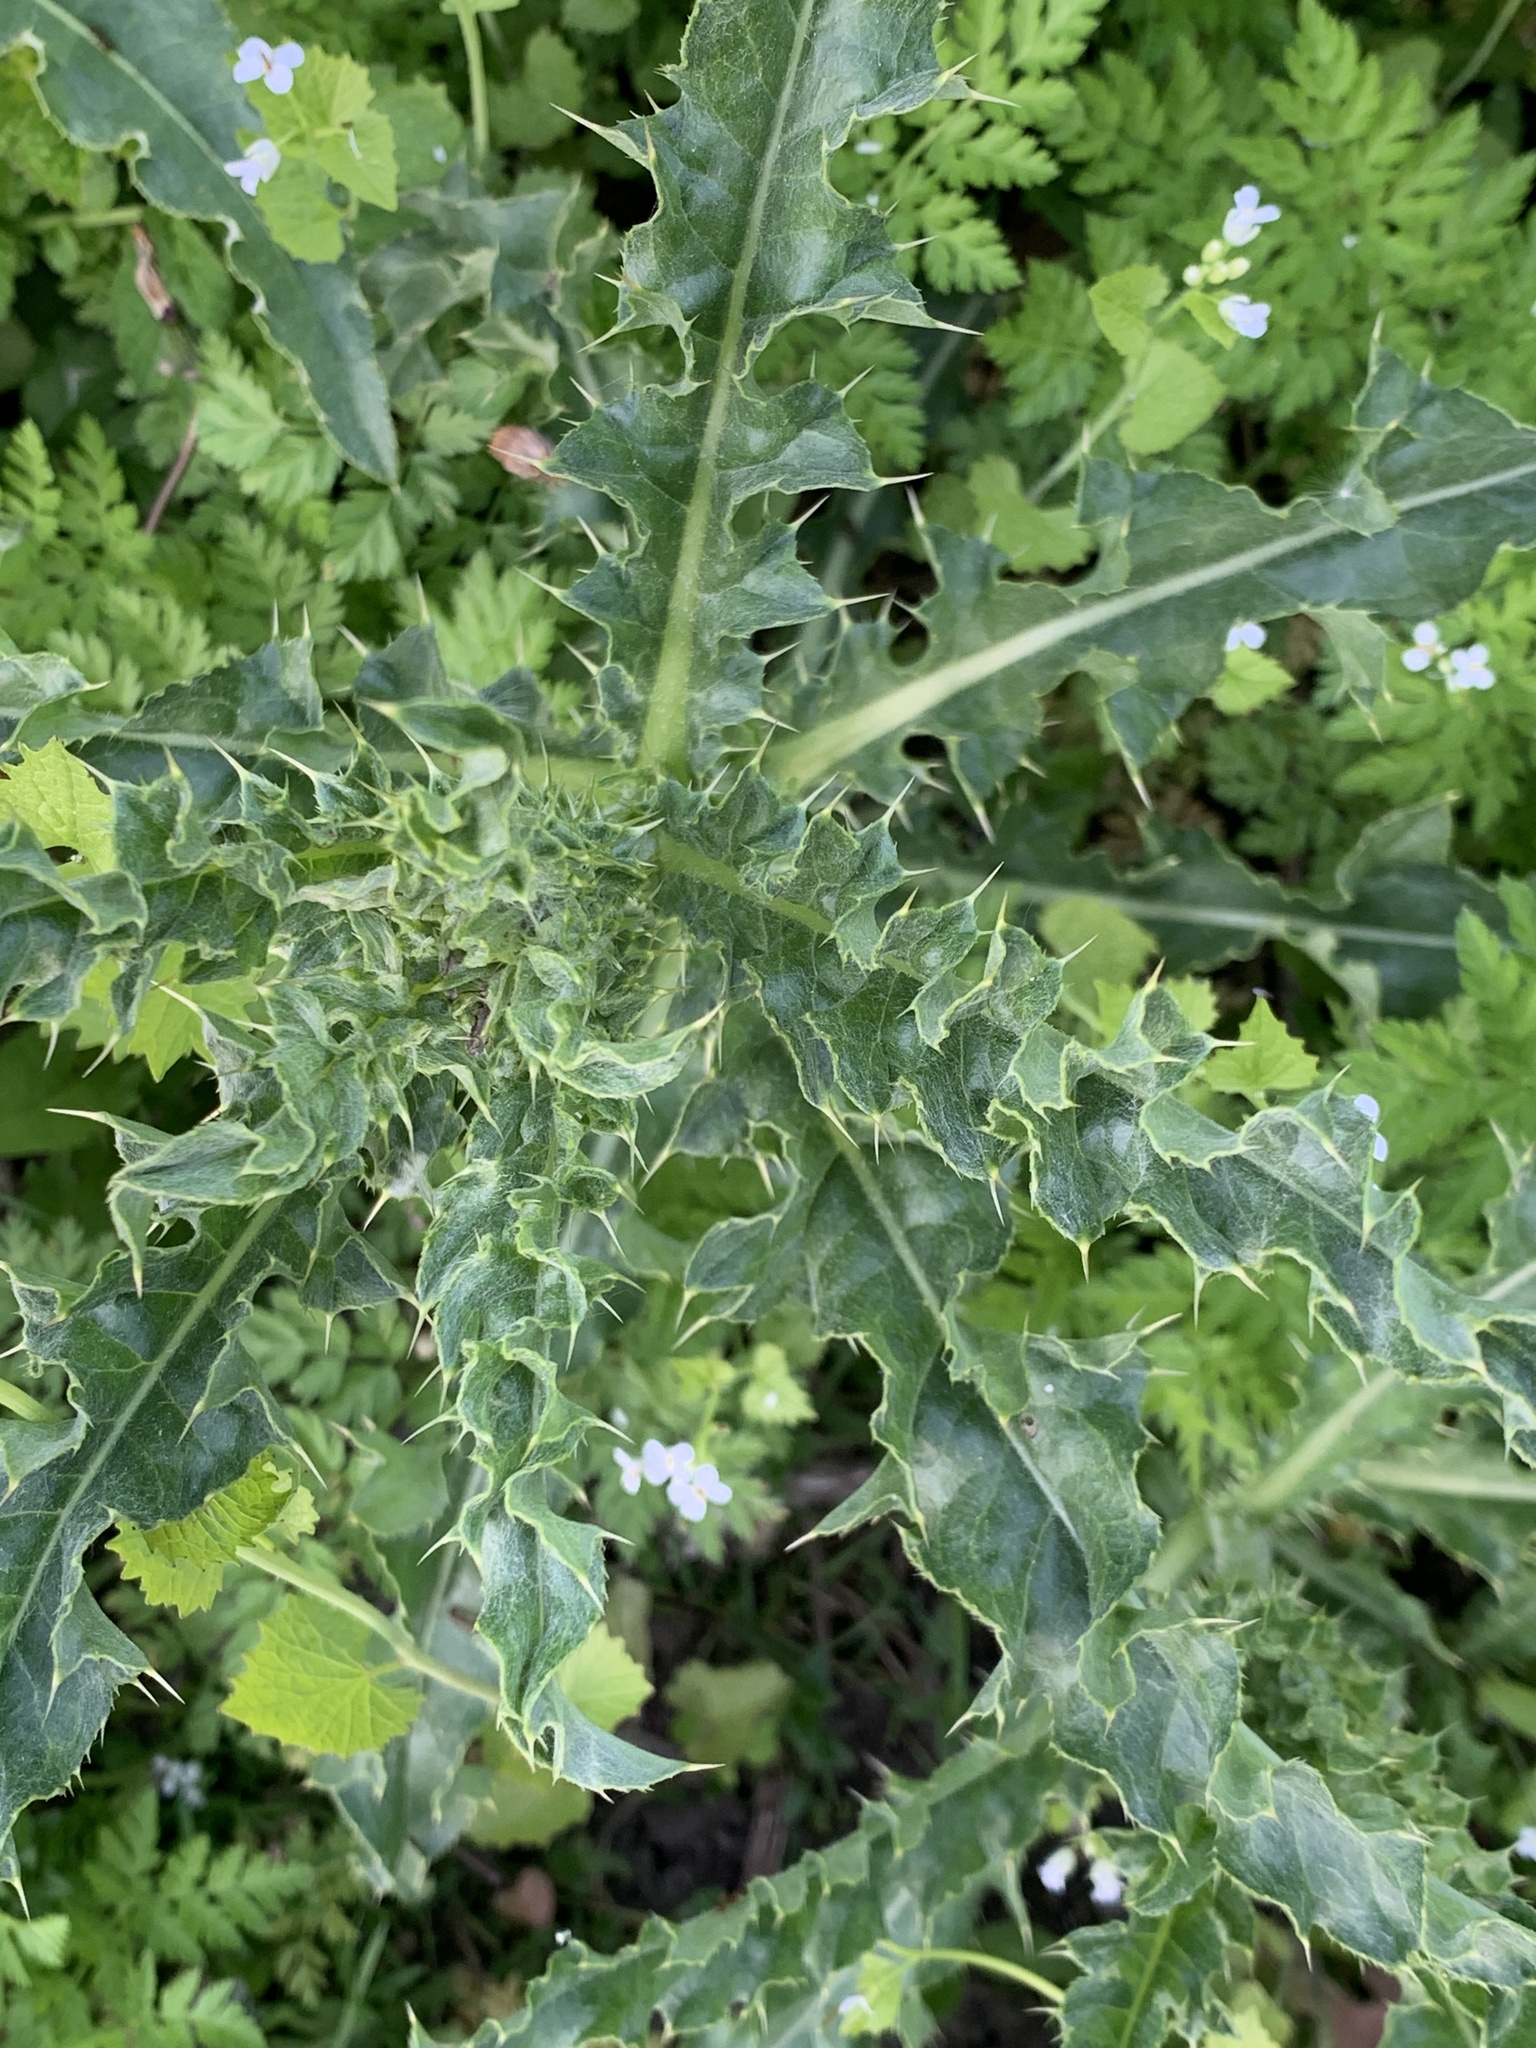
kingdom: Plantae
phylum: Tracheophyta
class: Magnoliopsida
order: Asterales
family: Asteraceae
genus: Cirsium
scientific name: Cirsium arvense
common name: Creeping thistle
